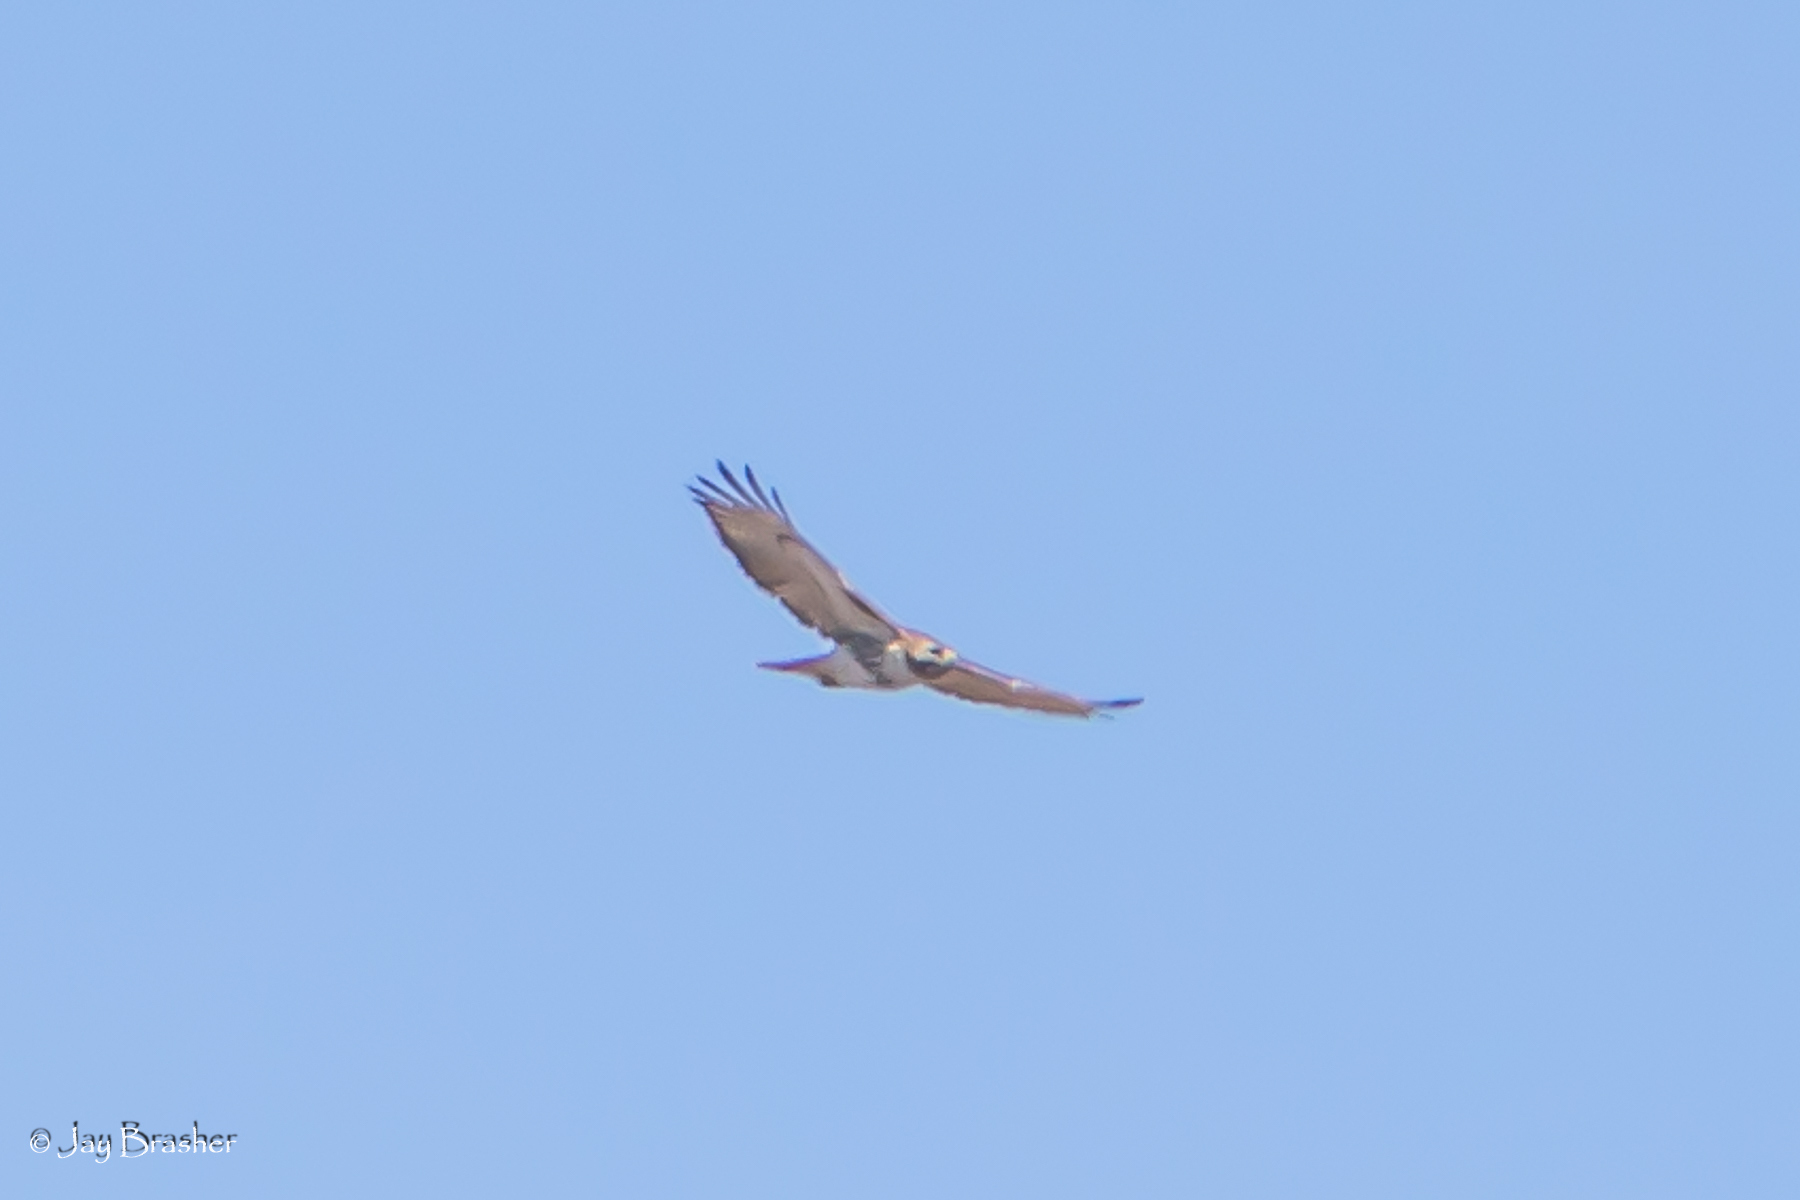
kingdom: Animalia
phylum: Chordata
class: Aves
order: Accipitriformes
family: Accipitridae
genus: Buteo
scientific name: Buteo jamaicensis
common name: Red-tailed hawk
